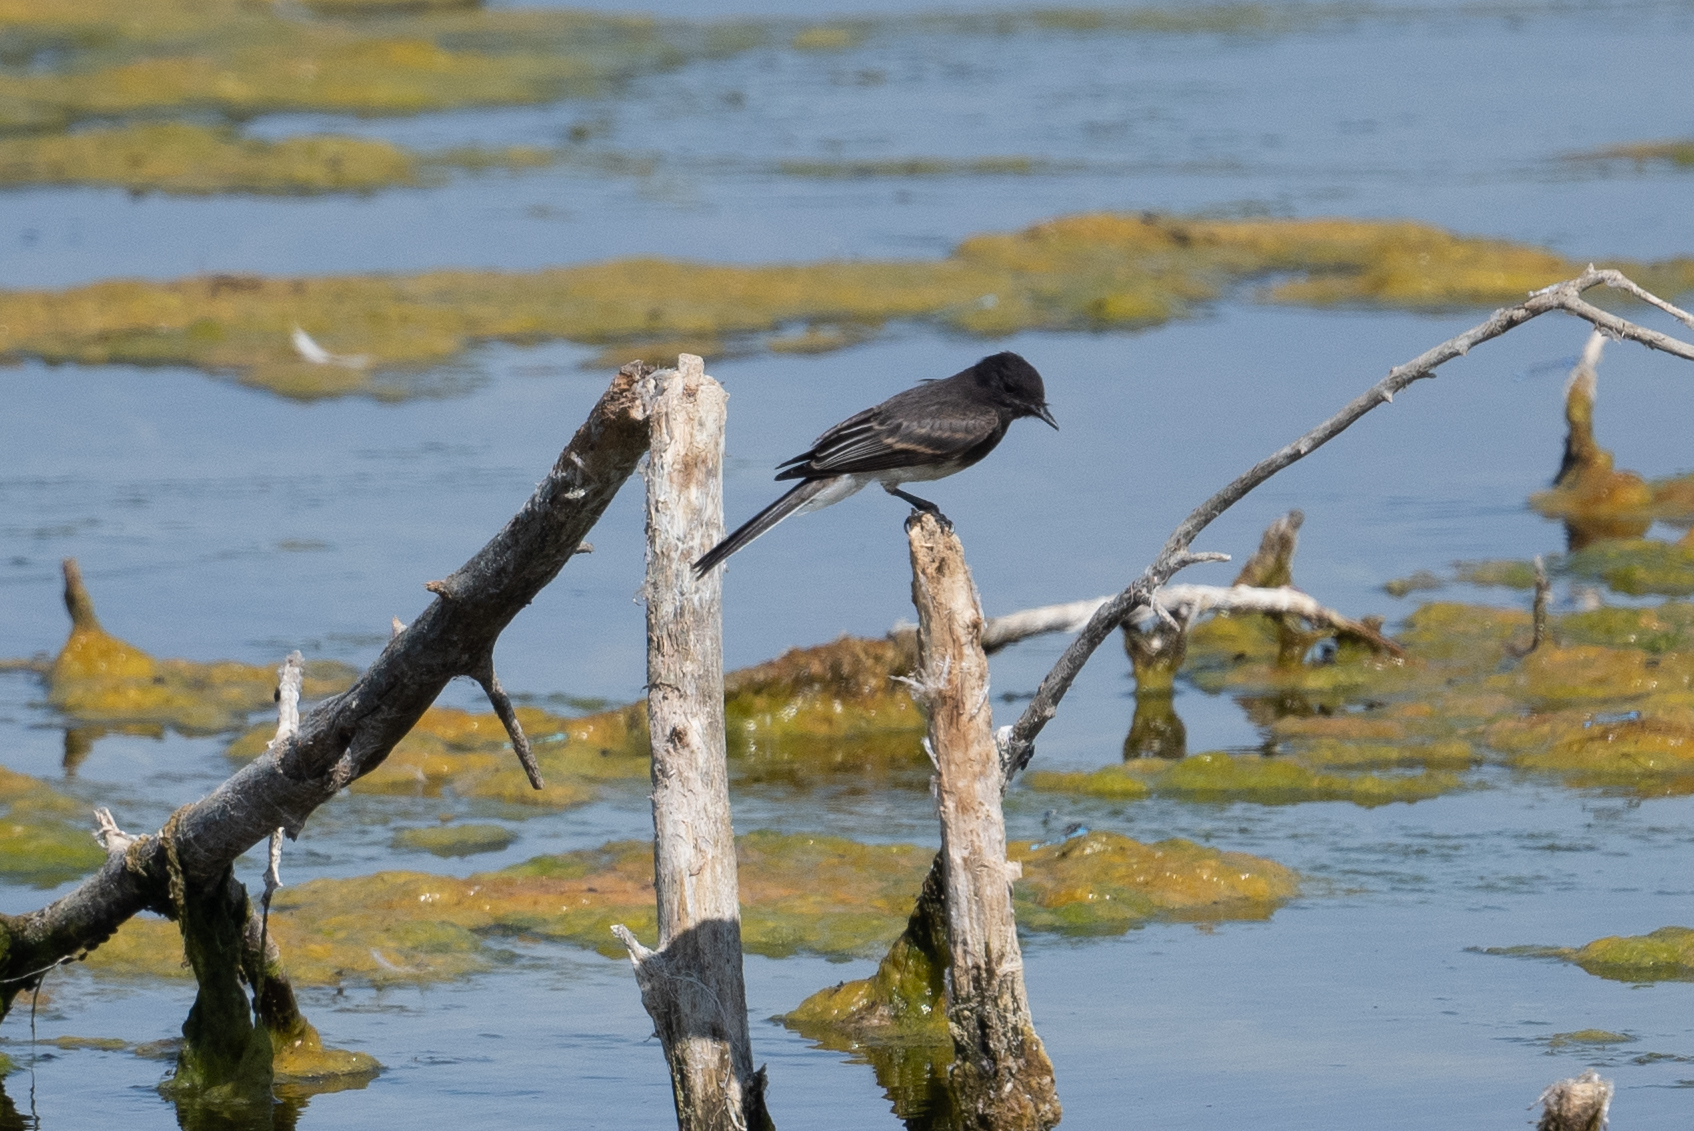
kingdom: Animalia
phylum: Chordata
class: Aves
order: Passeriformes
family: Tyrannidae
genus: Sayornis
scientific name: Sayornis nigricans
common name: Black phoebe
